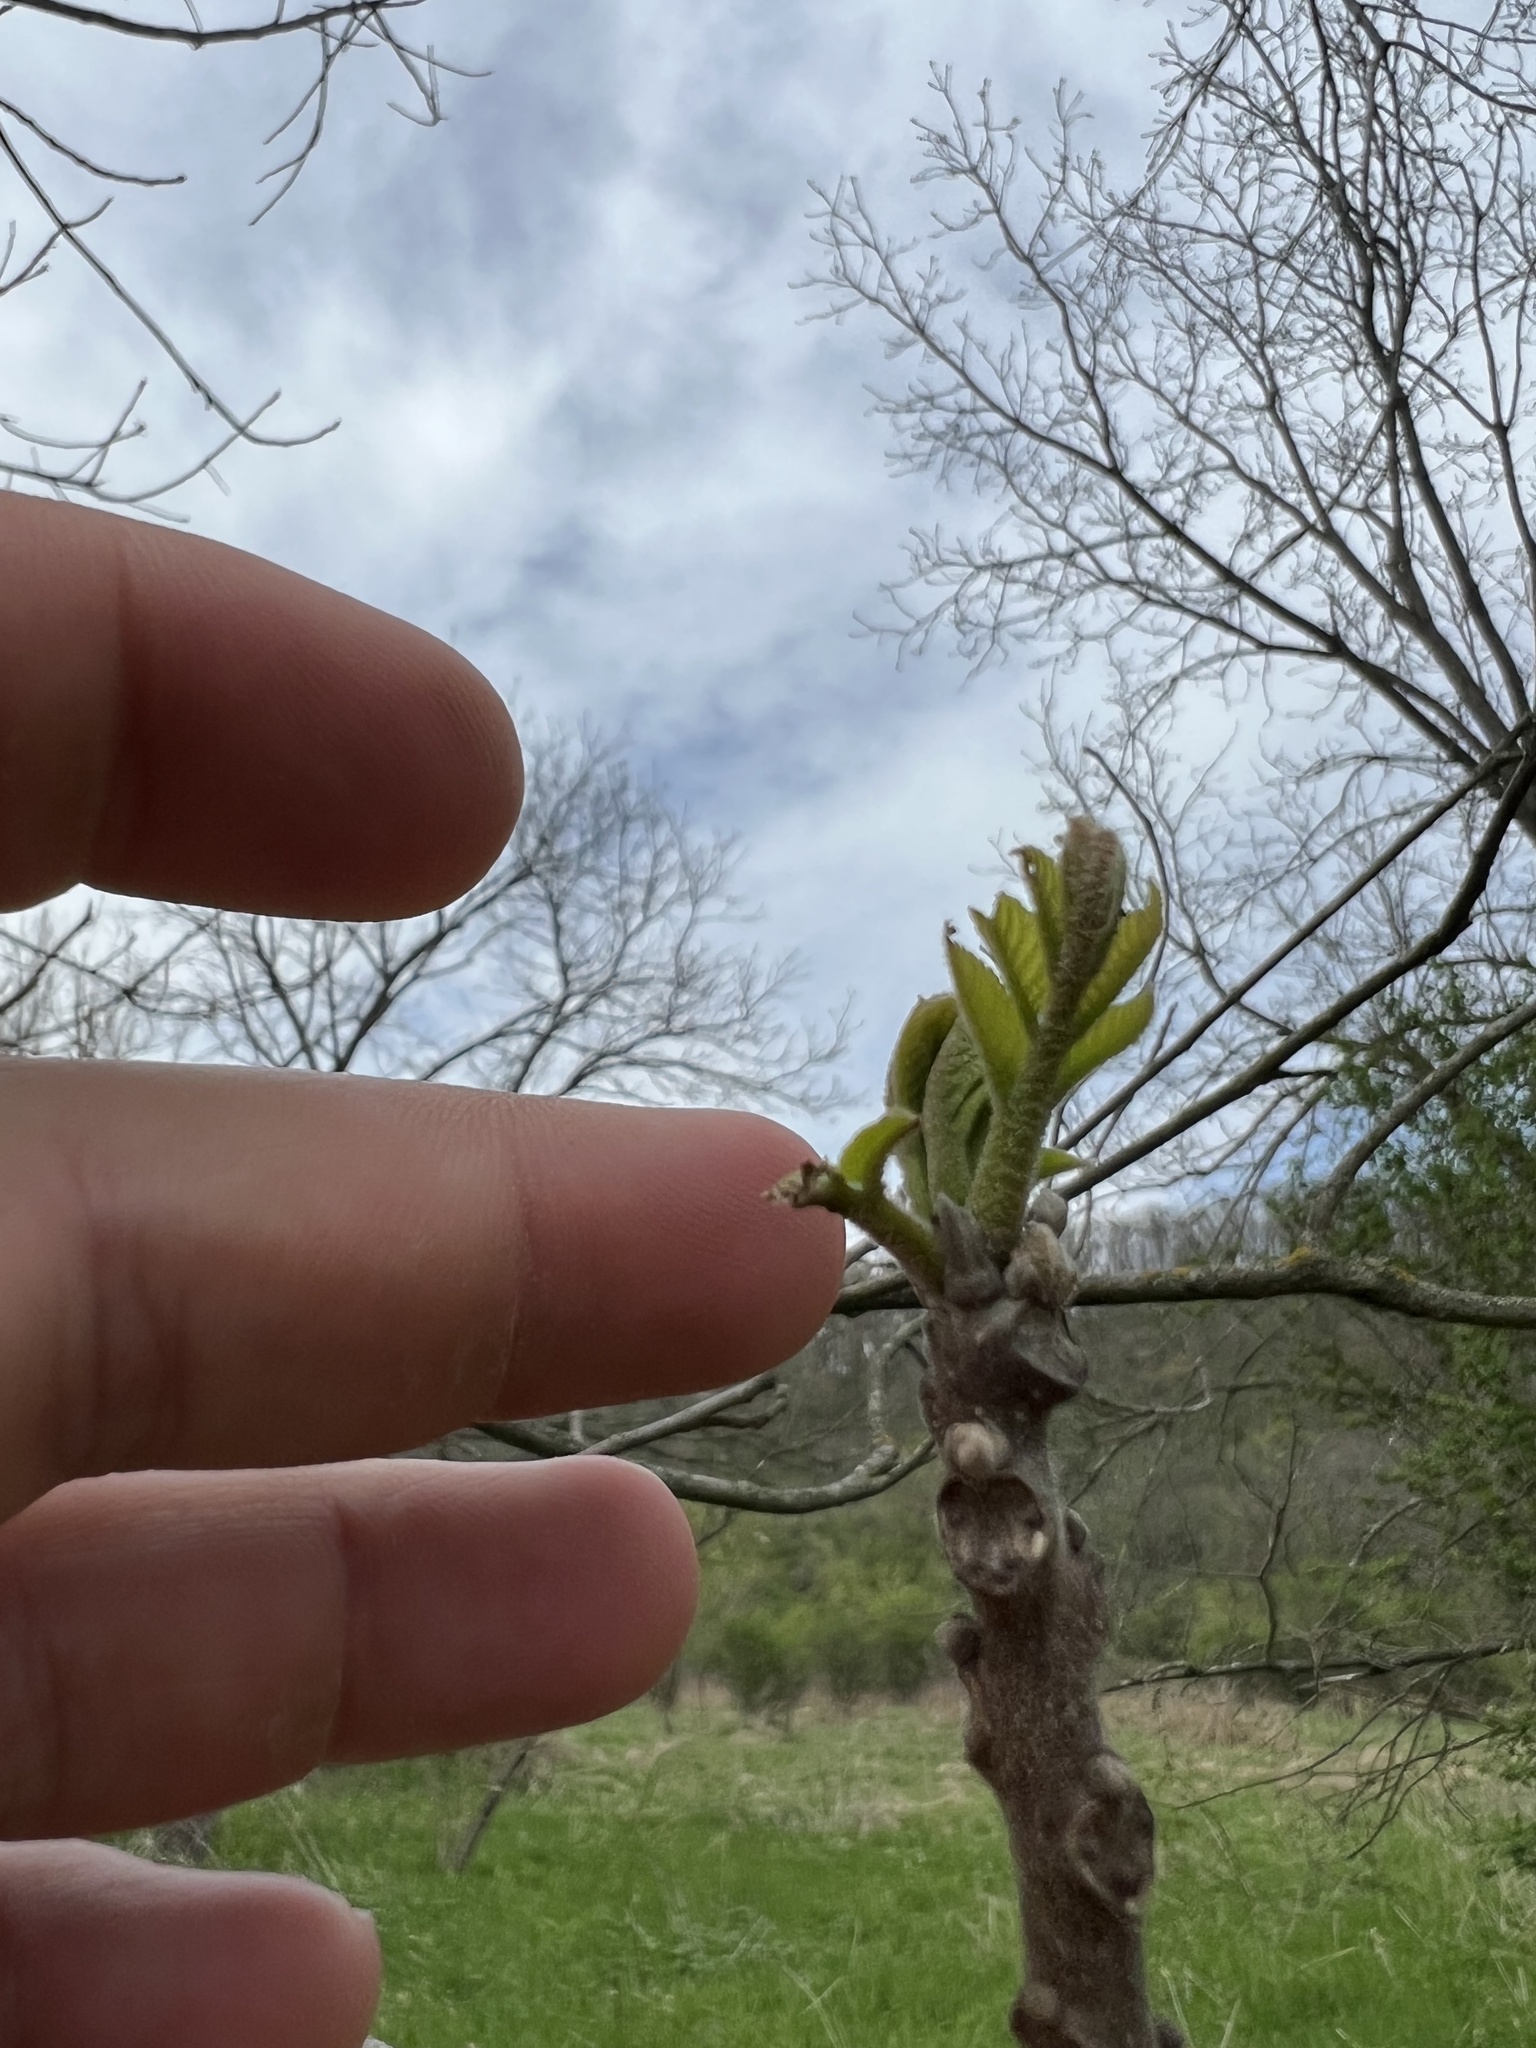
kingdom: Plantae
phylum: Tracheophyta
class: Magnoliopsida
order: Fagales
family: Juglandaceae
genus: Juglans
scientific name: Juglans nigra
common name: Black walnut
